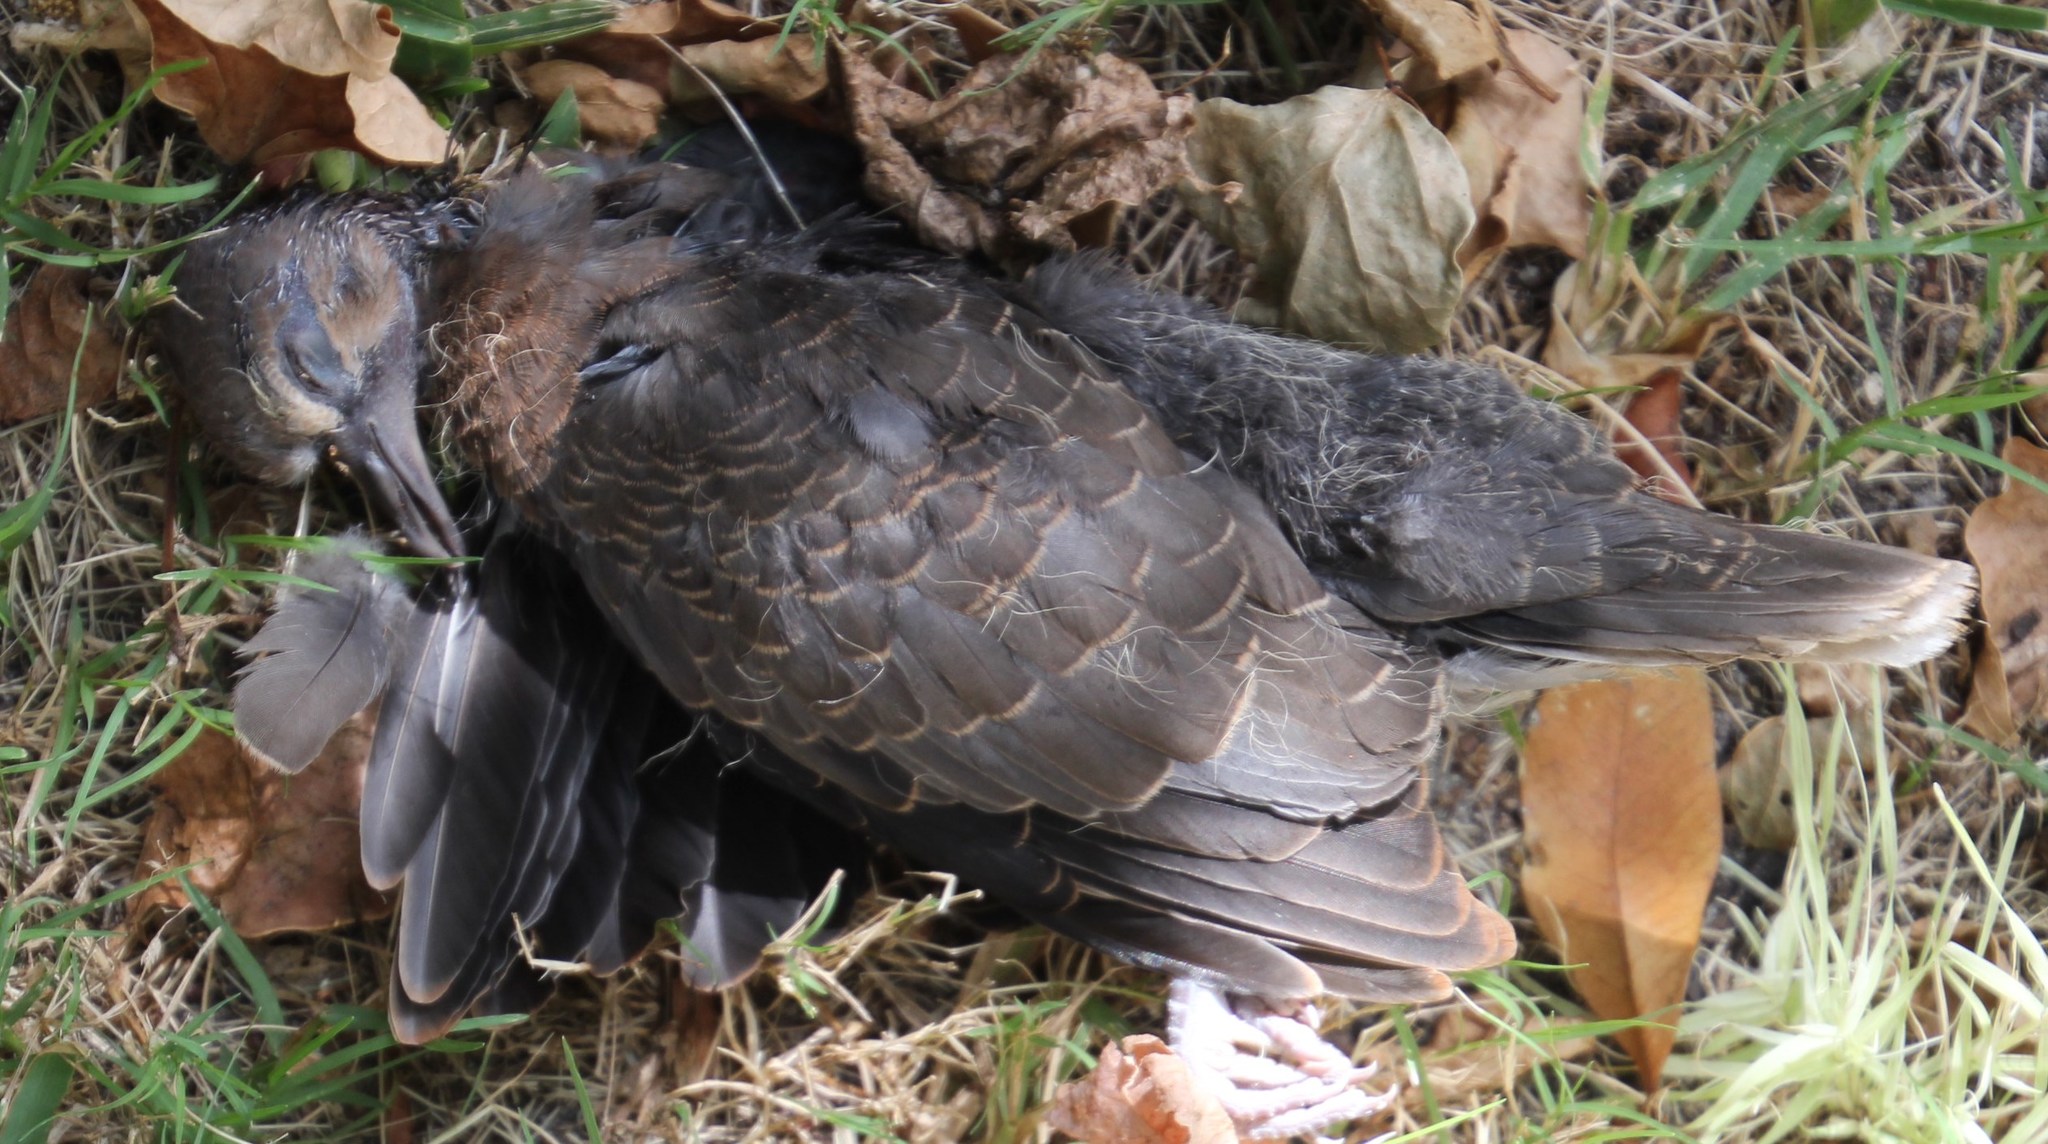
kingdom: Animalia
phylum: Chordata
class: Aves
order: Columbiformes
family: Columbidae
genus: Spilopelia
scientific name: Spilopelia senegalensis
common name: Laughing dove
